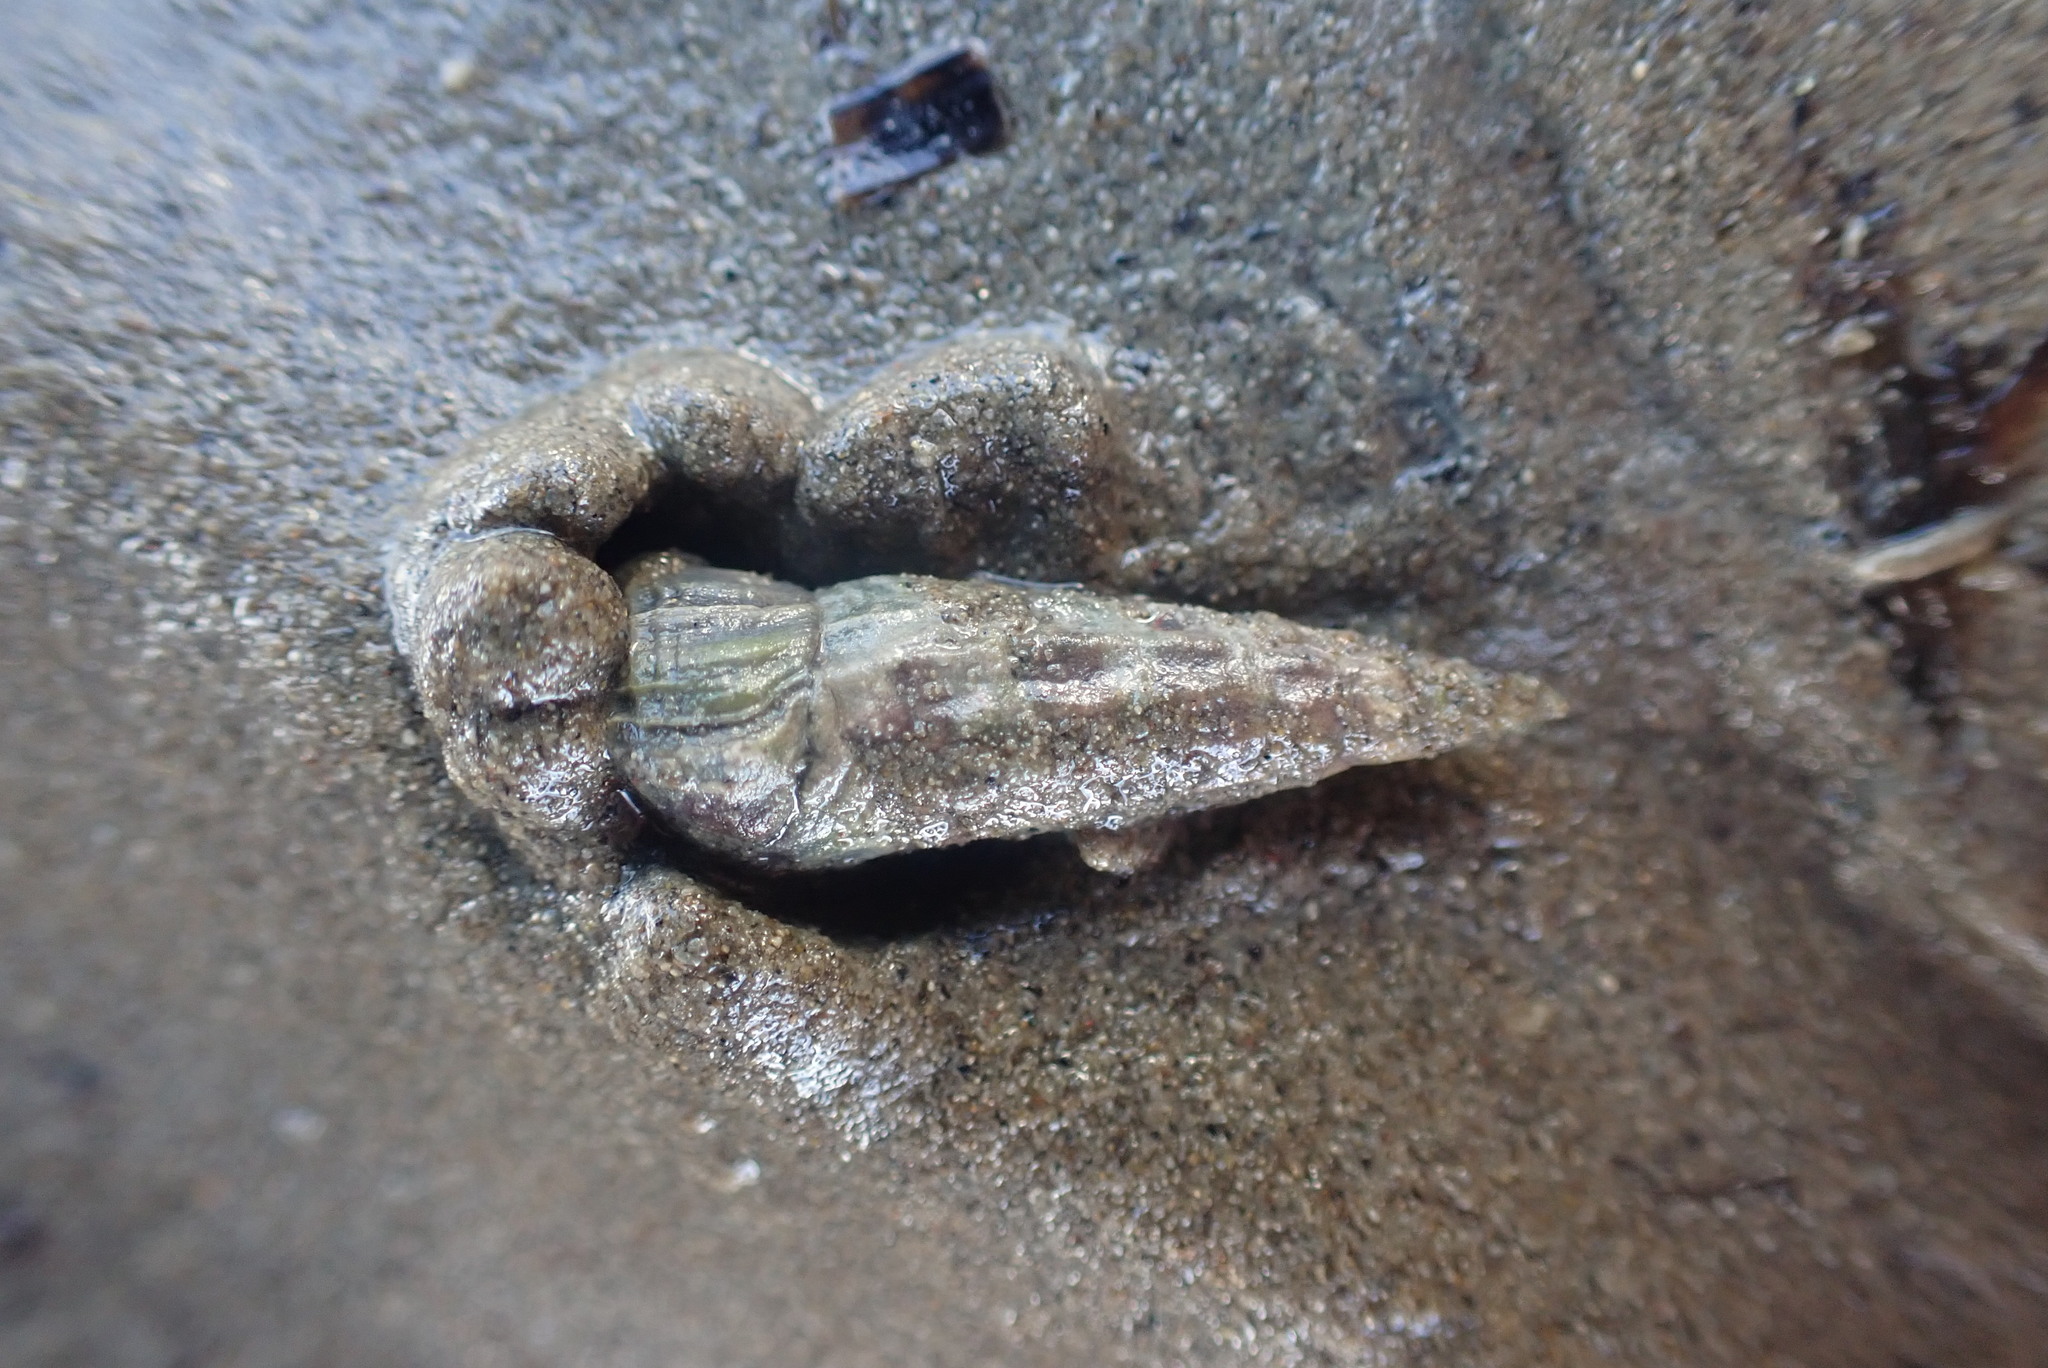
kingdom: Animalia
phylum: Mollusca
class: Gastropoda
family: Batillariidae
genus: Zeacumantus
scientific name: Zeacumantus lutulentus
